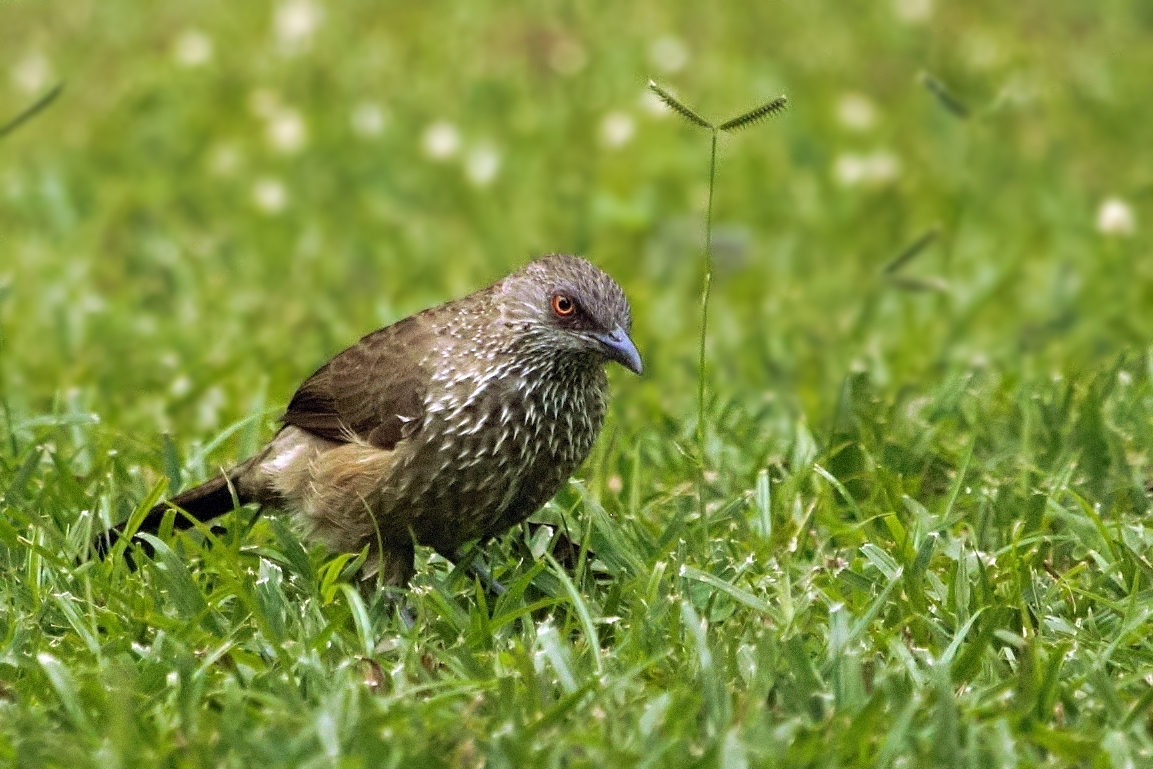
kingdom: Animalia
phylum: Chordata
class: Aves
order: Passeriformes
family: Leiothrichidae
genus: Turdoides
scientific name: Turdoides jardineii
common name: Arrow-marked babbler
